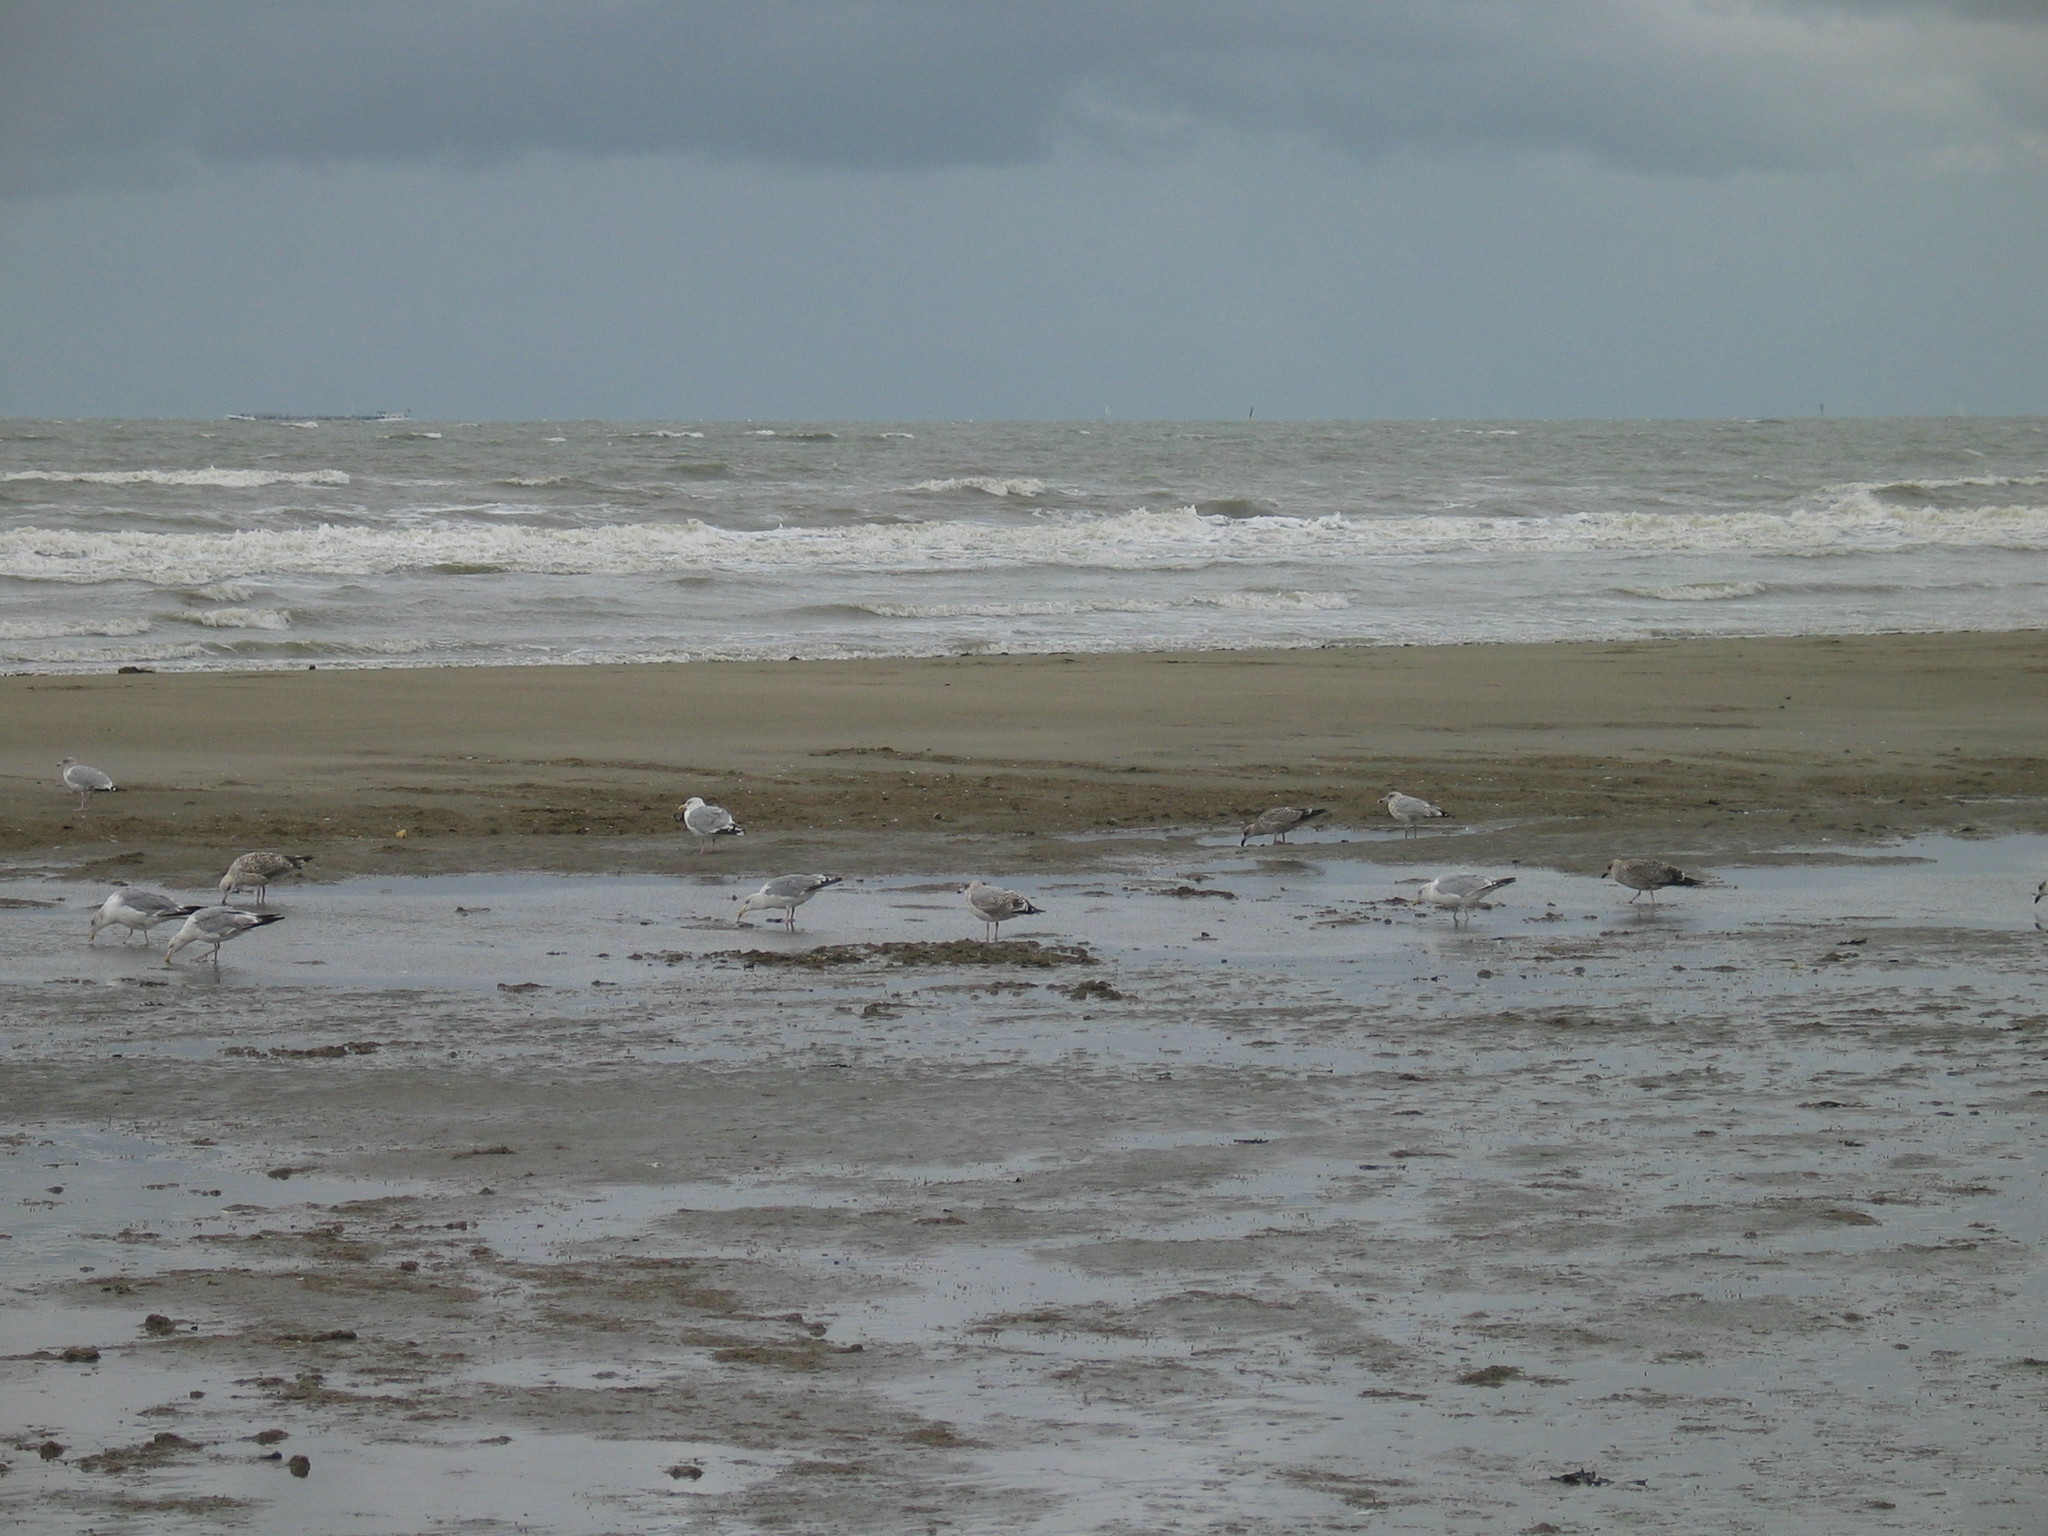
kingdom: Animalia
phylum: Chordata
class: Aves
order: Charadriiformes
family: Laridae
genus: Larus
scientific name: Larus argentatus
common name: Herring gull
